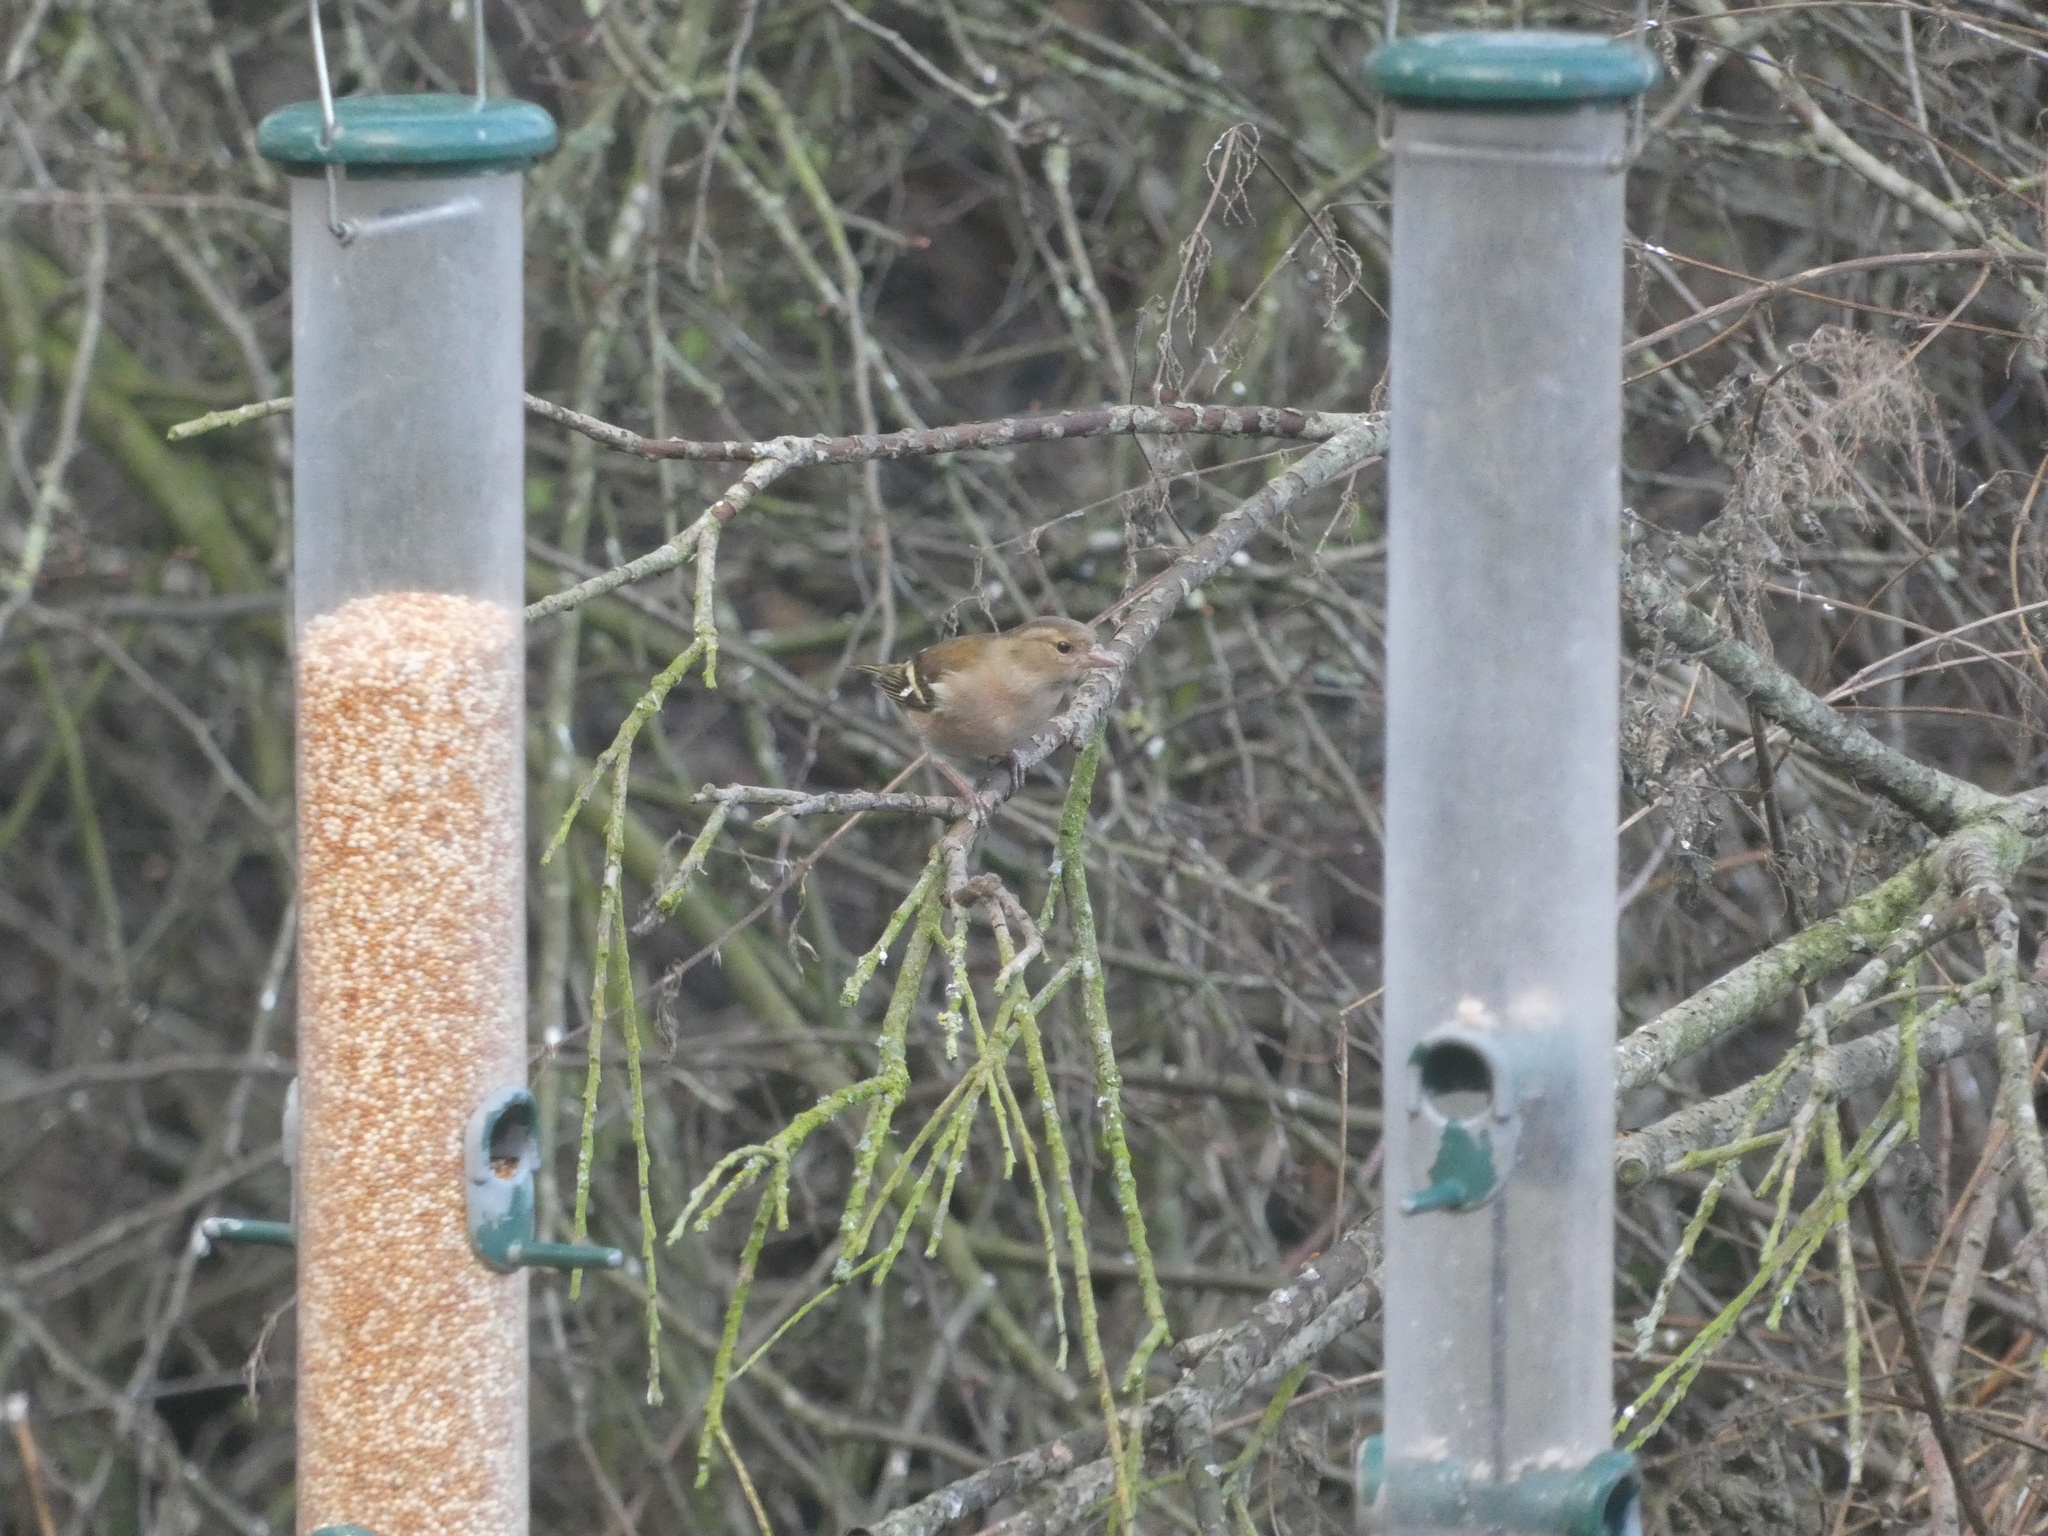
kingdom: Animalia
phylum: Chordata
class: Aves
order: Passeriformes
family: Fringillidae
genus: Fringilla
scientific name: Fringilla coelebs
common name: Common chaffinch
